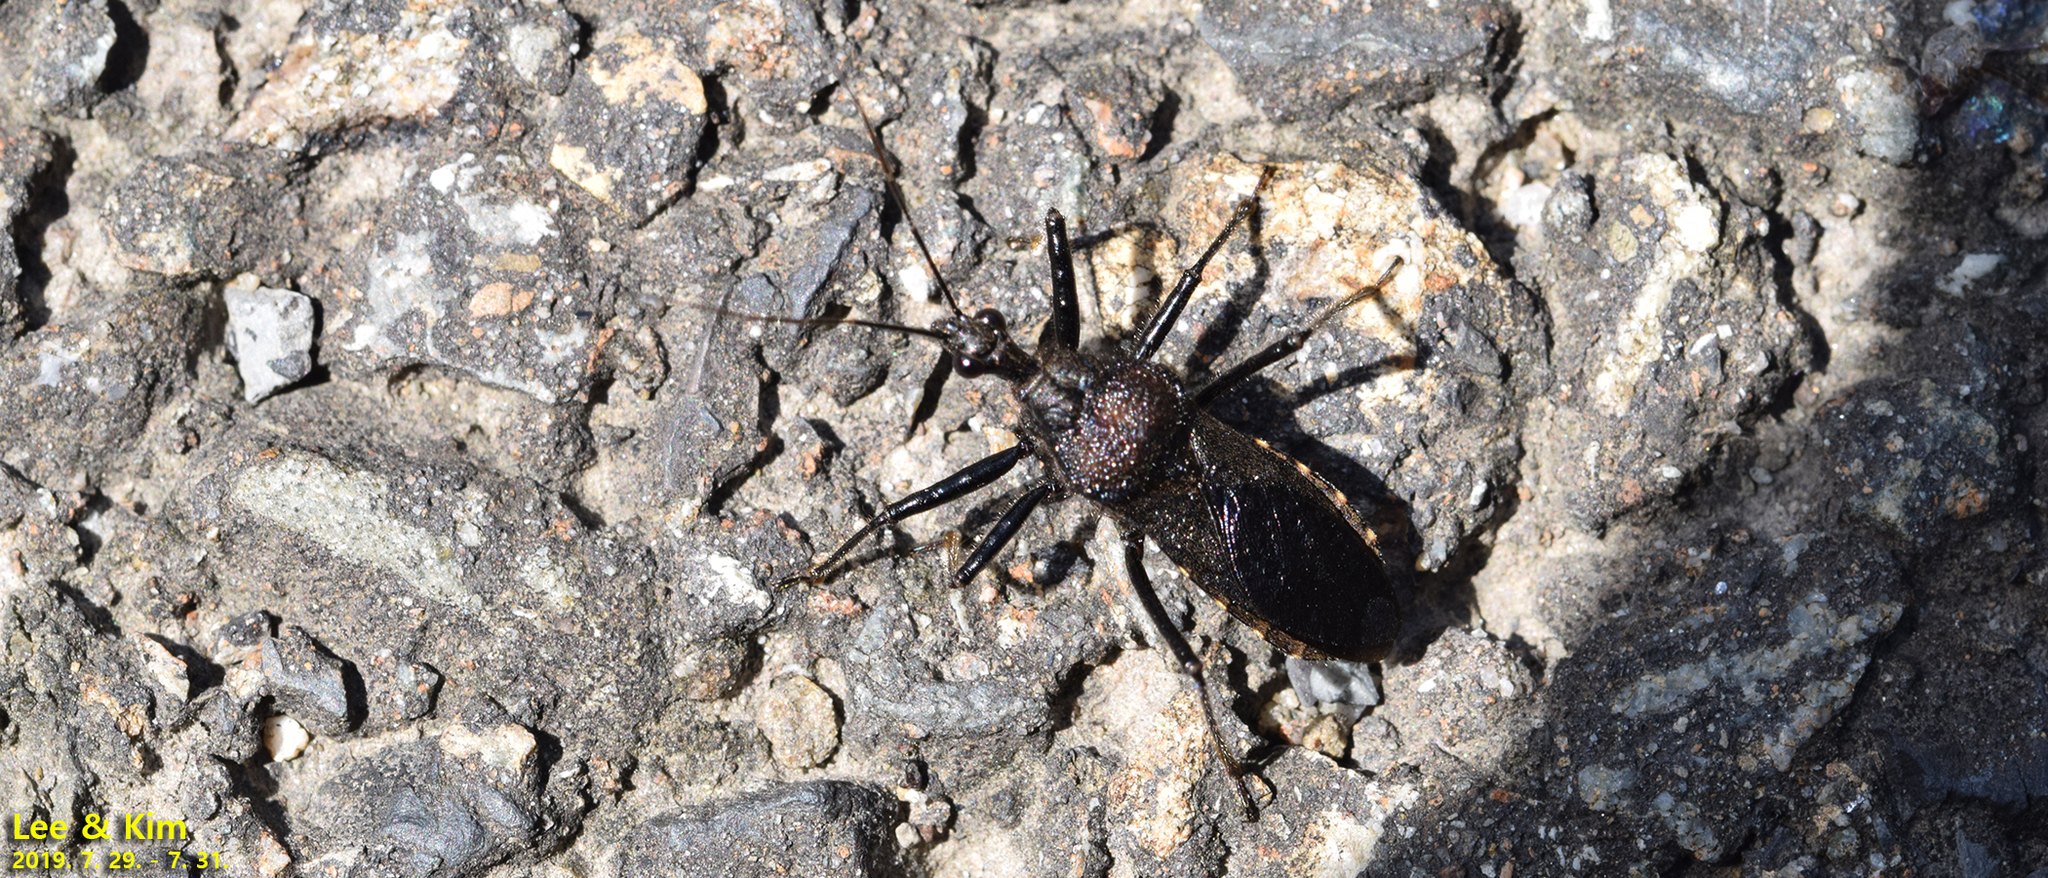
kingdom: Animalia
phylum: Arthropoda
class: Insecta
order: Hemiptera
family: Reduviidae
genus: Coranus
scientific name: Coranus dilatatus
